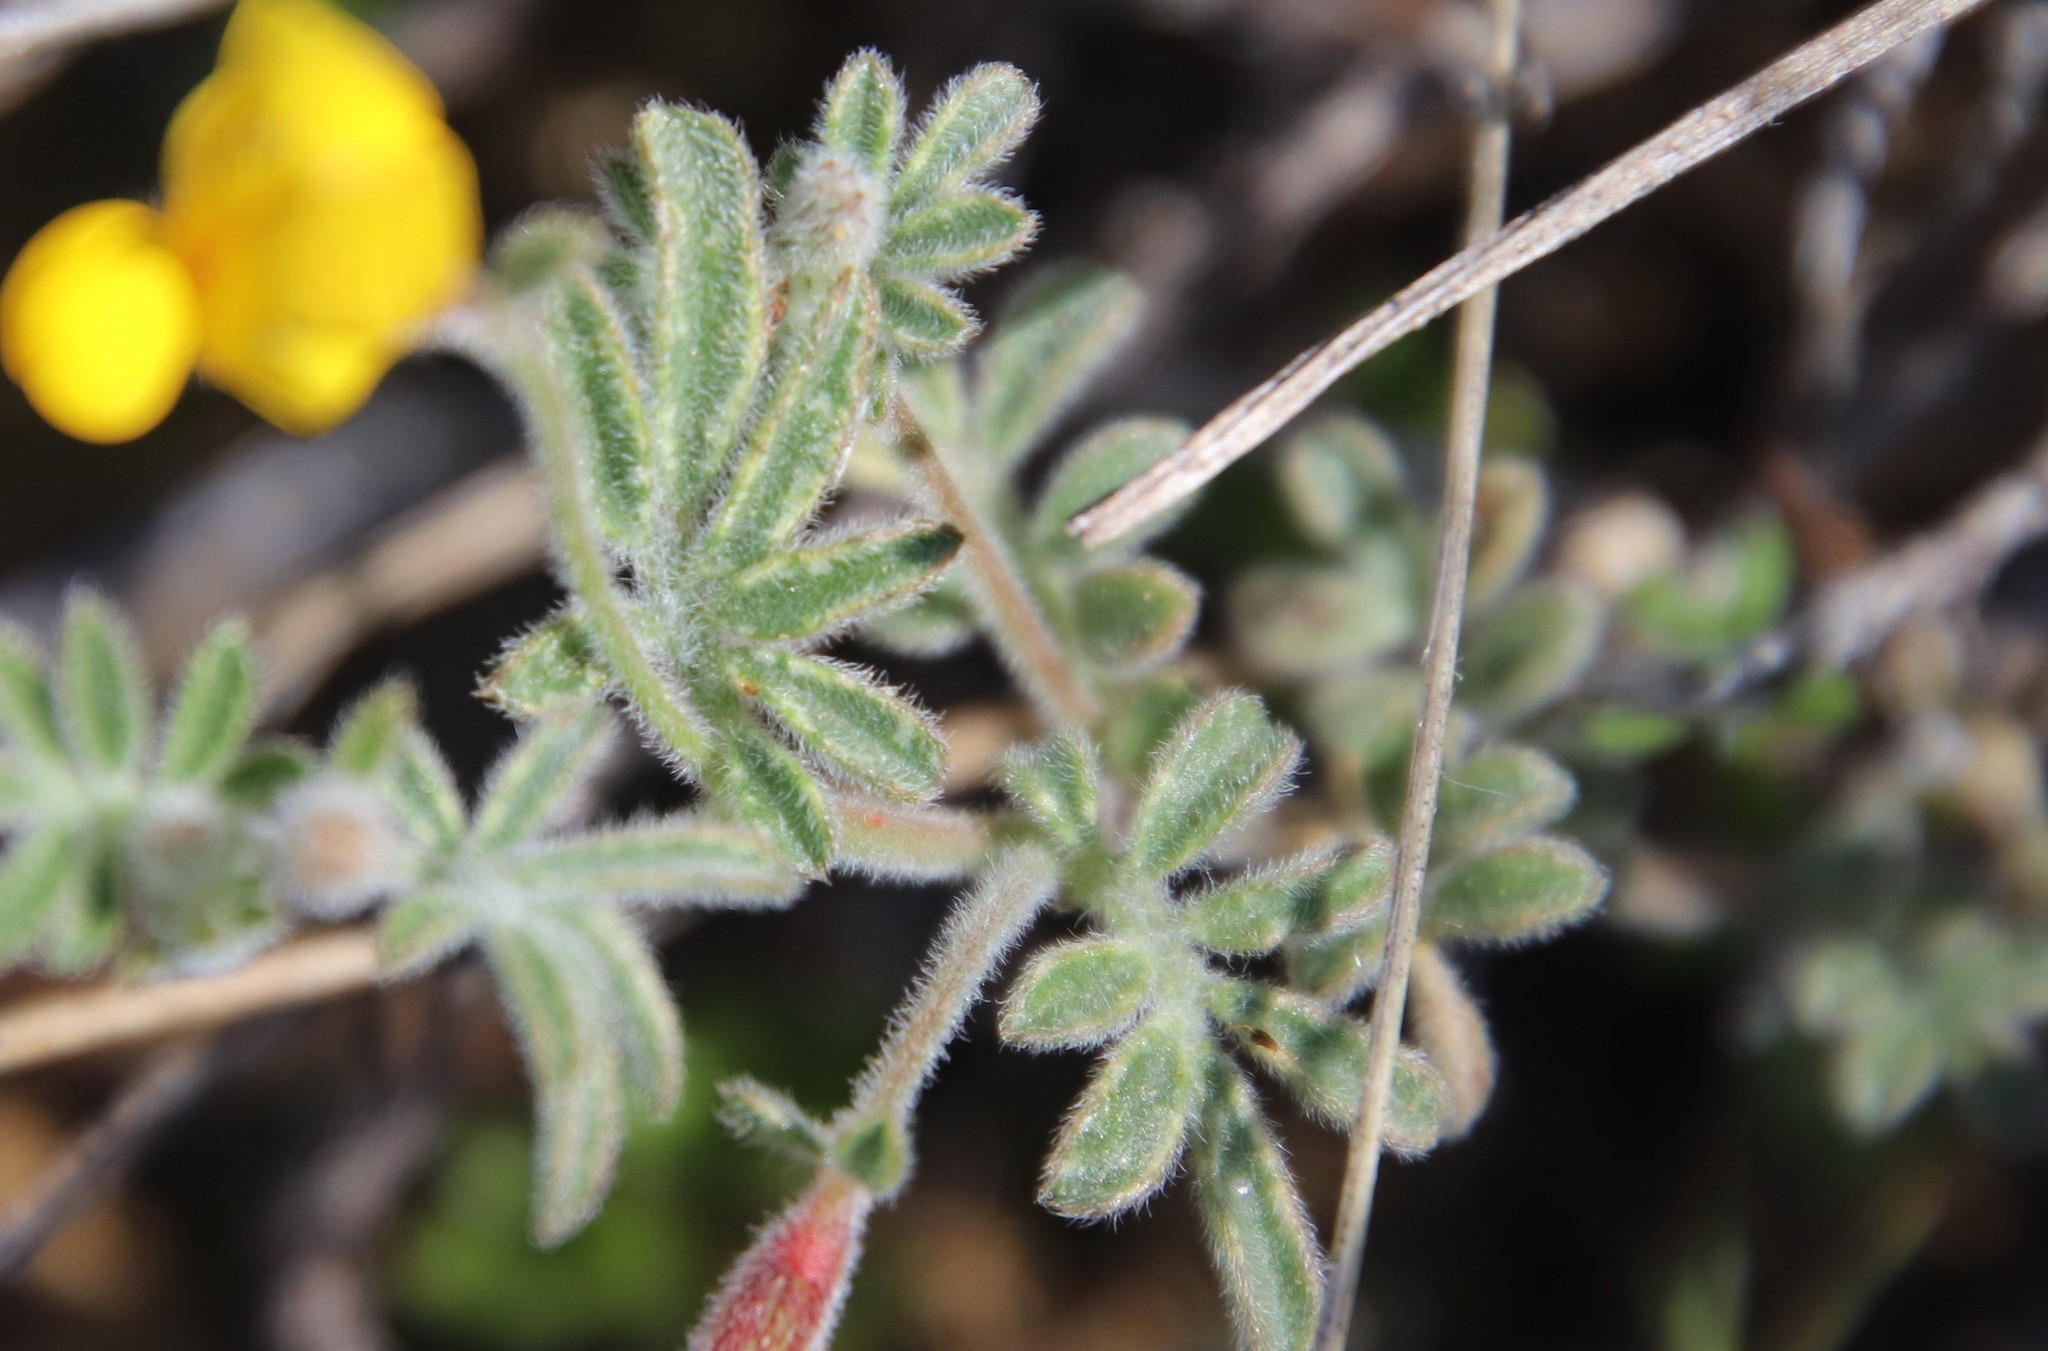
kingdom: Plantae
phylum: Tracheophyta
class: Magnoliopsida
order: Fabales
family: Fabaceae
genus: Acmispon
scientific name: Acmispon strigosus
